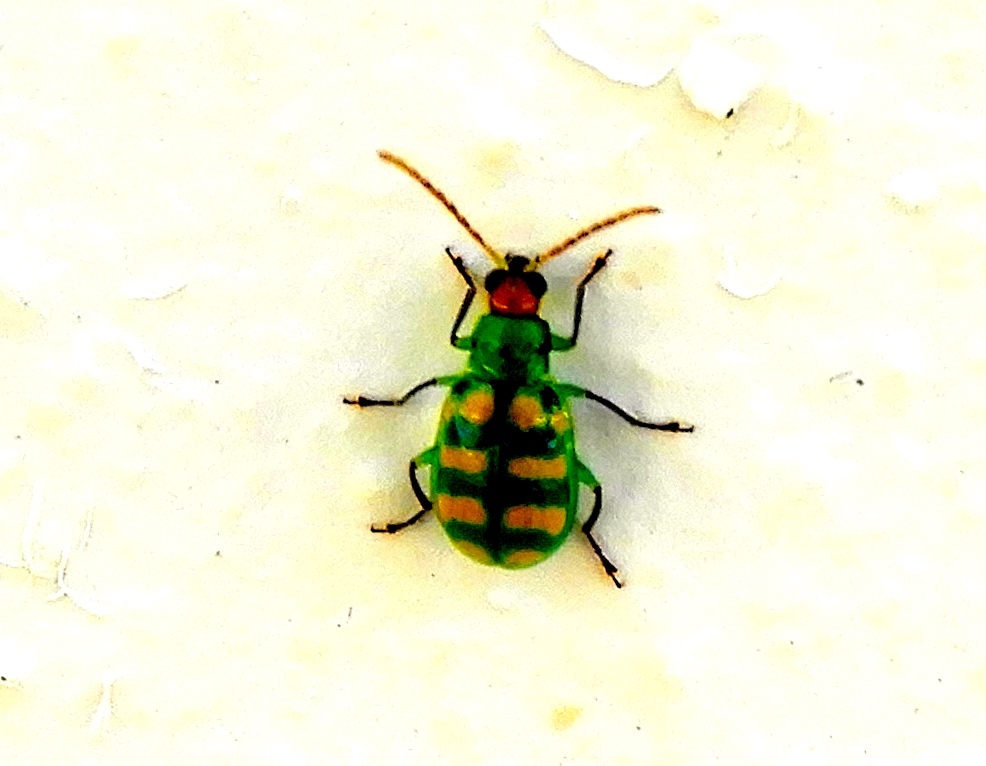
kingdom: Animalia
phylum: Arthropoda
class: Insecta
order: Coleoptera
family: Chrysomelidae
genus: Diabrotica
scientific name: Diabrotica balteata
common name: Leaf beetle
